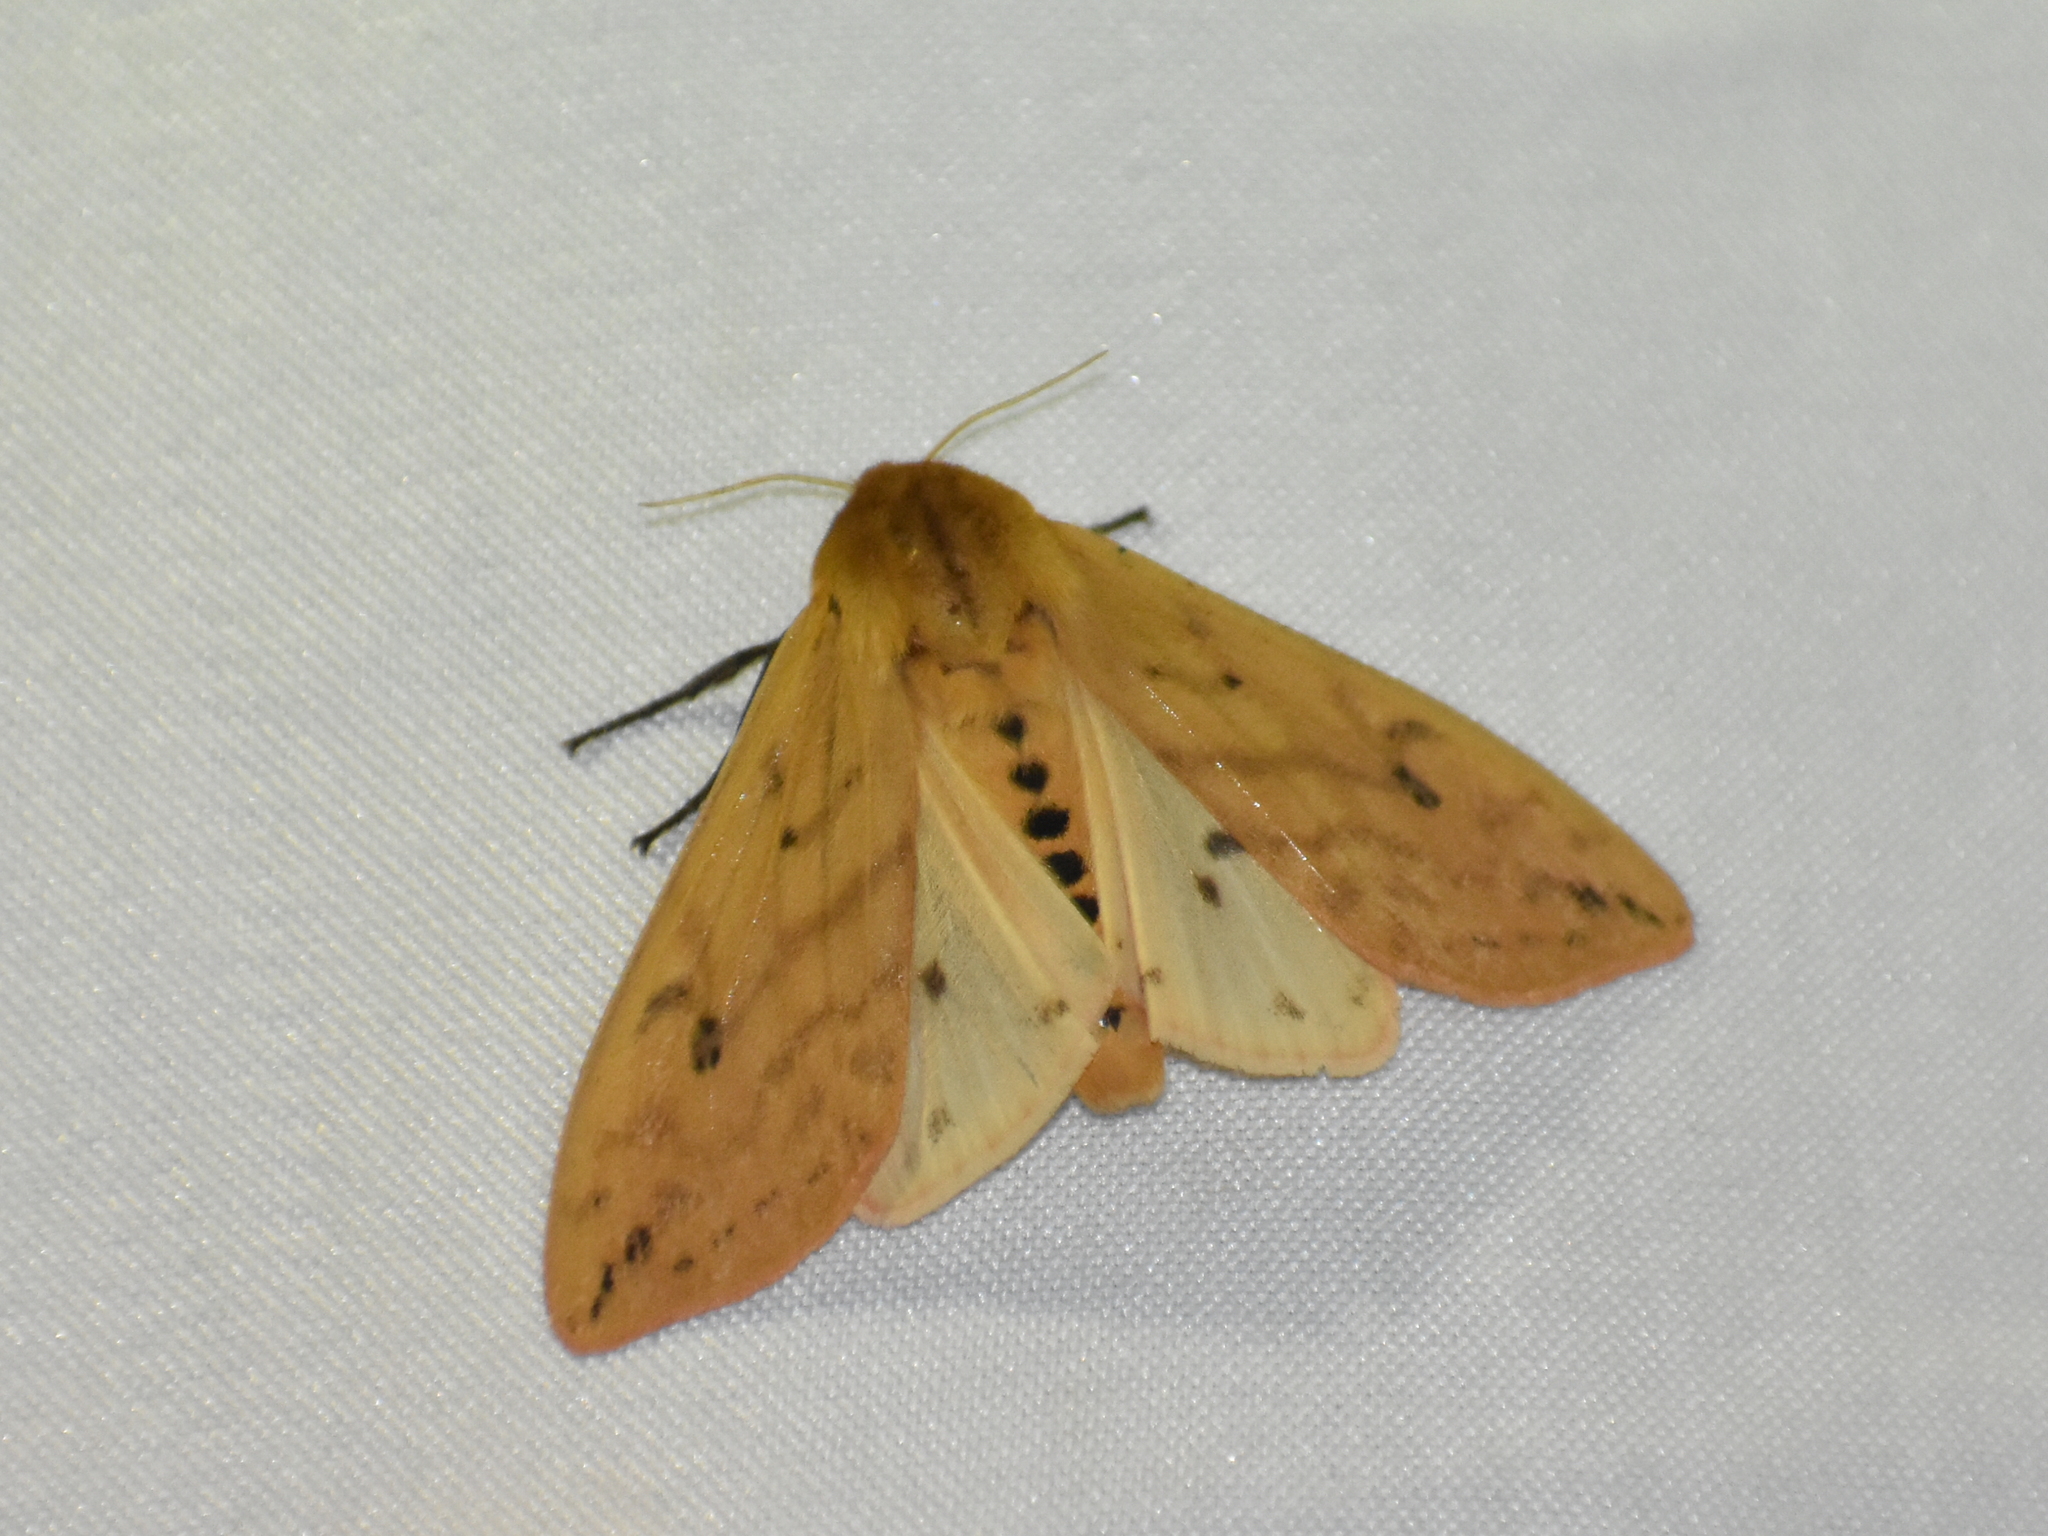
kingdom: Animalia
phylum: Arthropoda
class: Insecta
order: Lepidoptera
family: Erebidae
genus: Pyrrharctia
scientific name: Pyrrharctia isabella
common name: Isabella tiger moth
